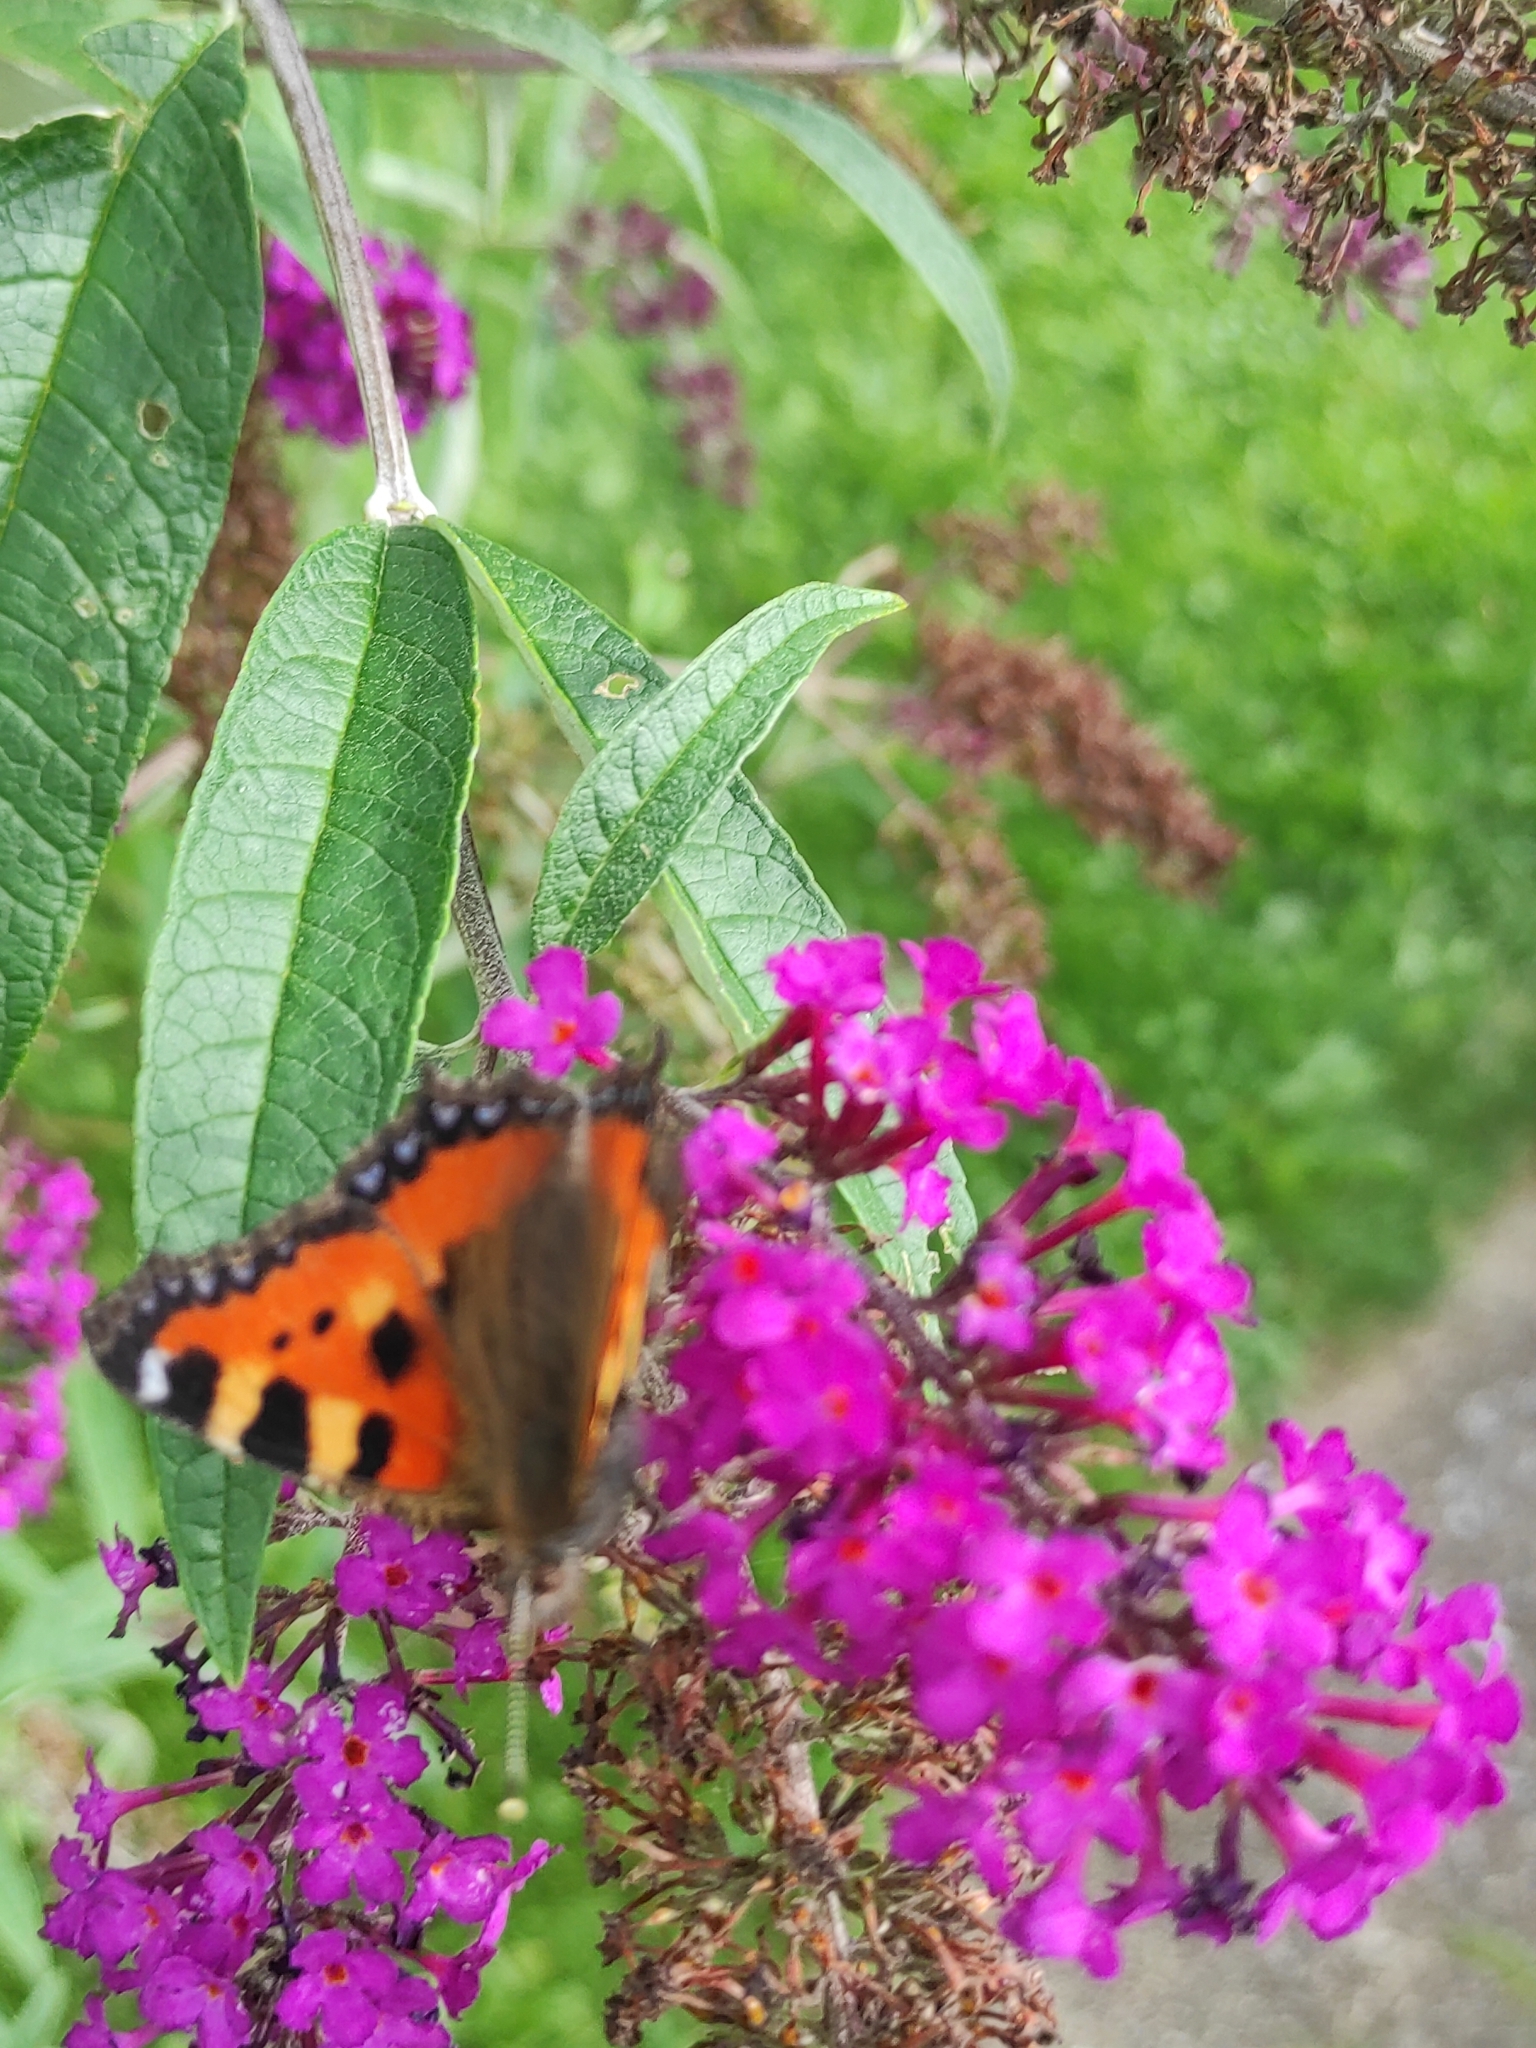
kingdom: Animalia
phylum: Arthropoda
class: Insecta
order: Lepidoptera
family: Nymphalidae
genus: Aglais
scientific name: Aglais urticae
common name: Small tortoiseshell
